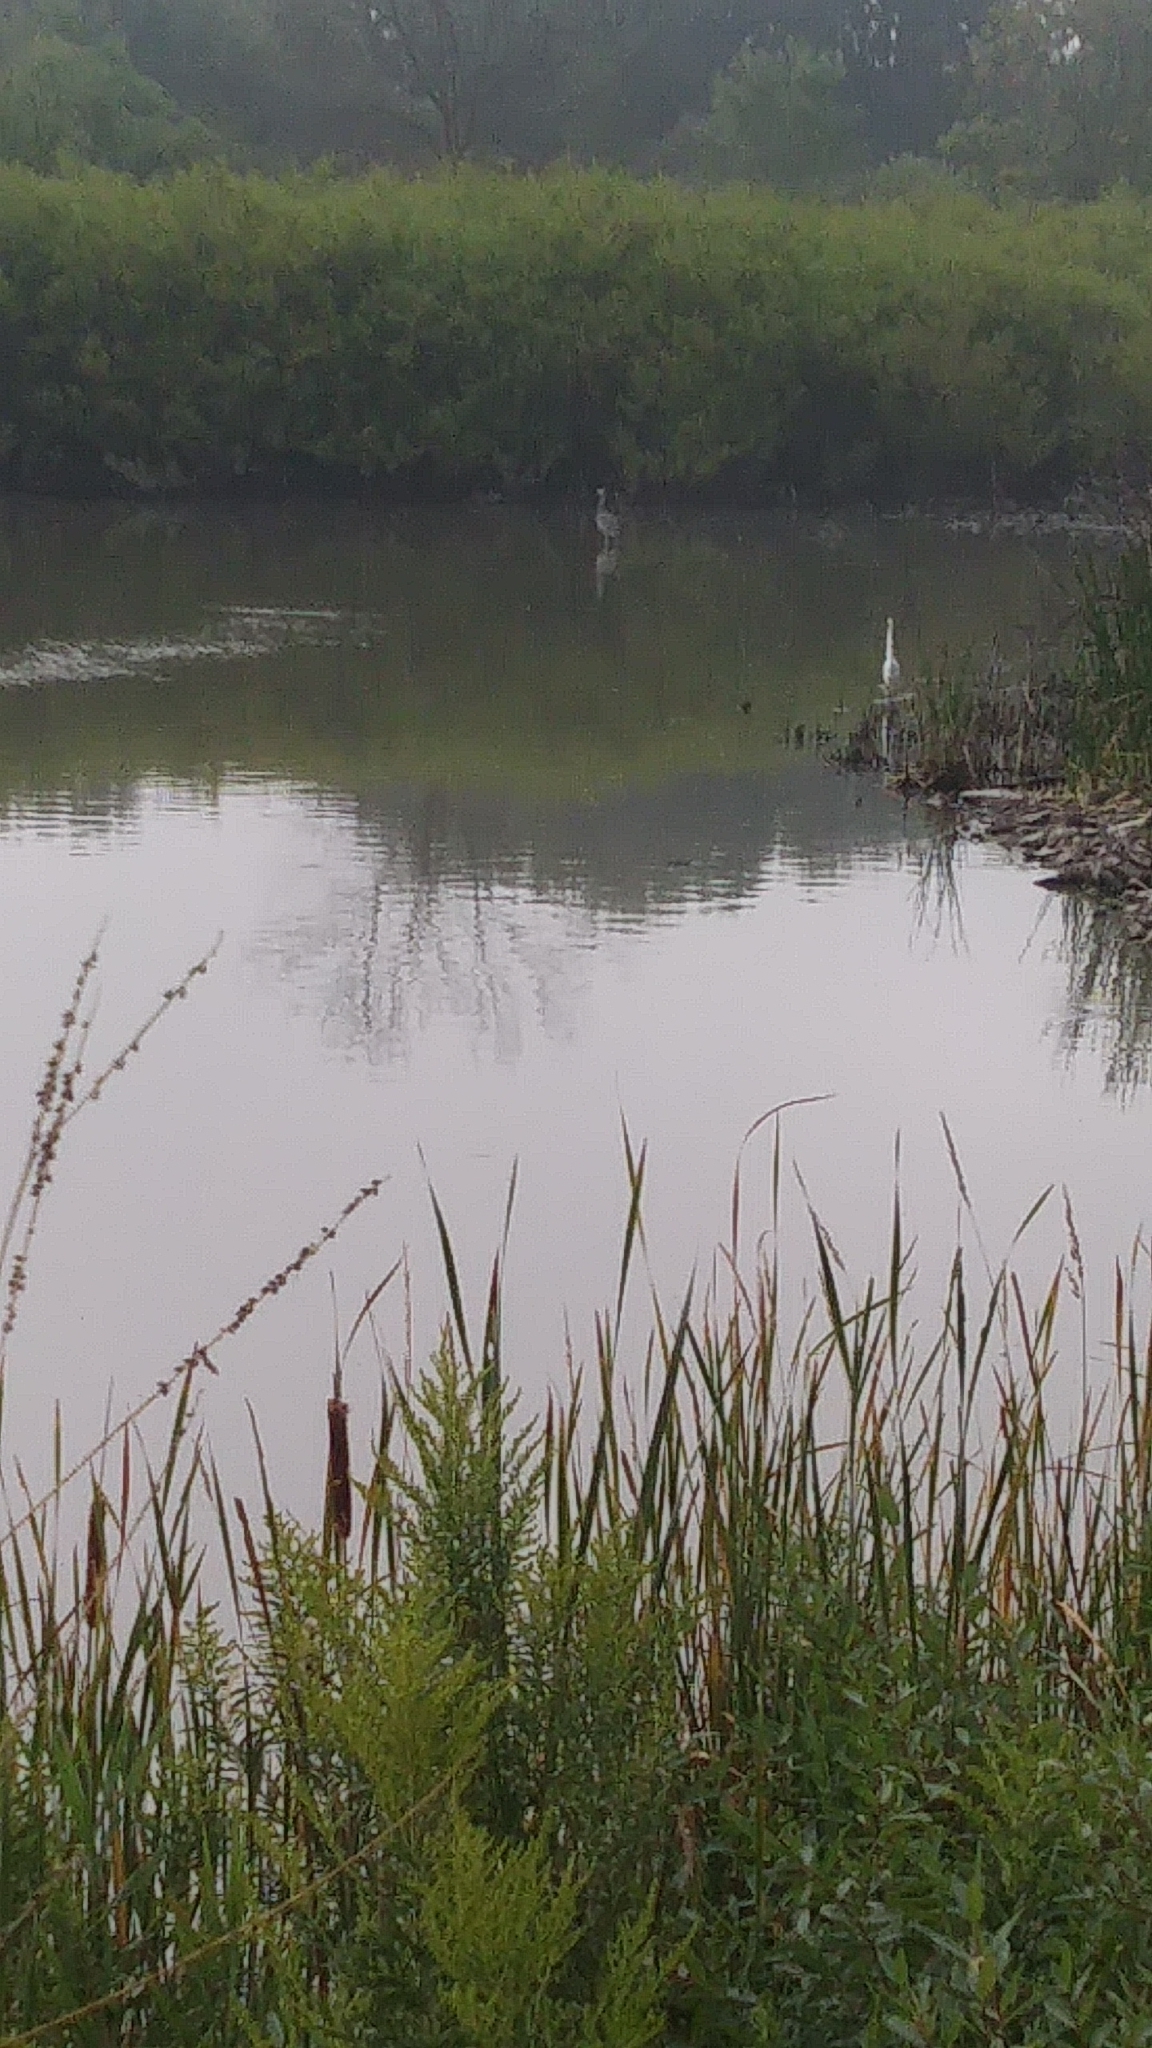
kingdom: Animalia
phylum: Chordata
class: Aves
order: Pelecaniformes
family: Ardeidae
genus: Ardea
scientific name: Ardea herodias
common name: Great blue heron
